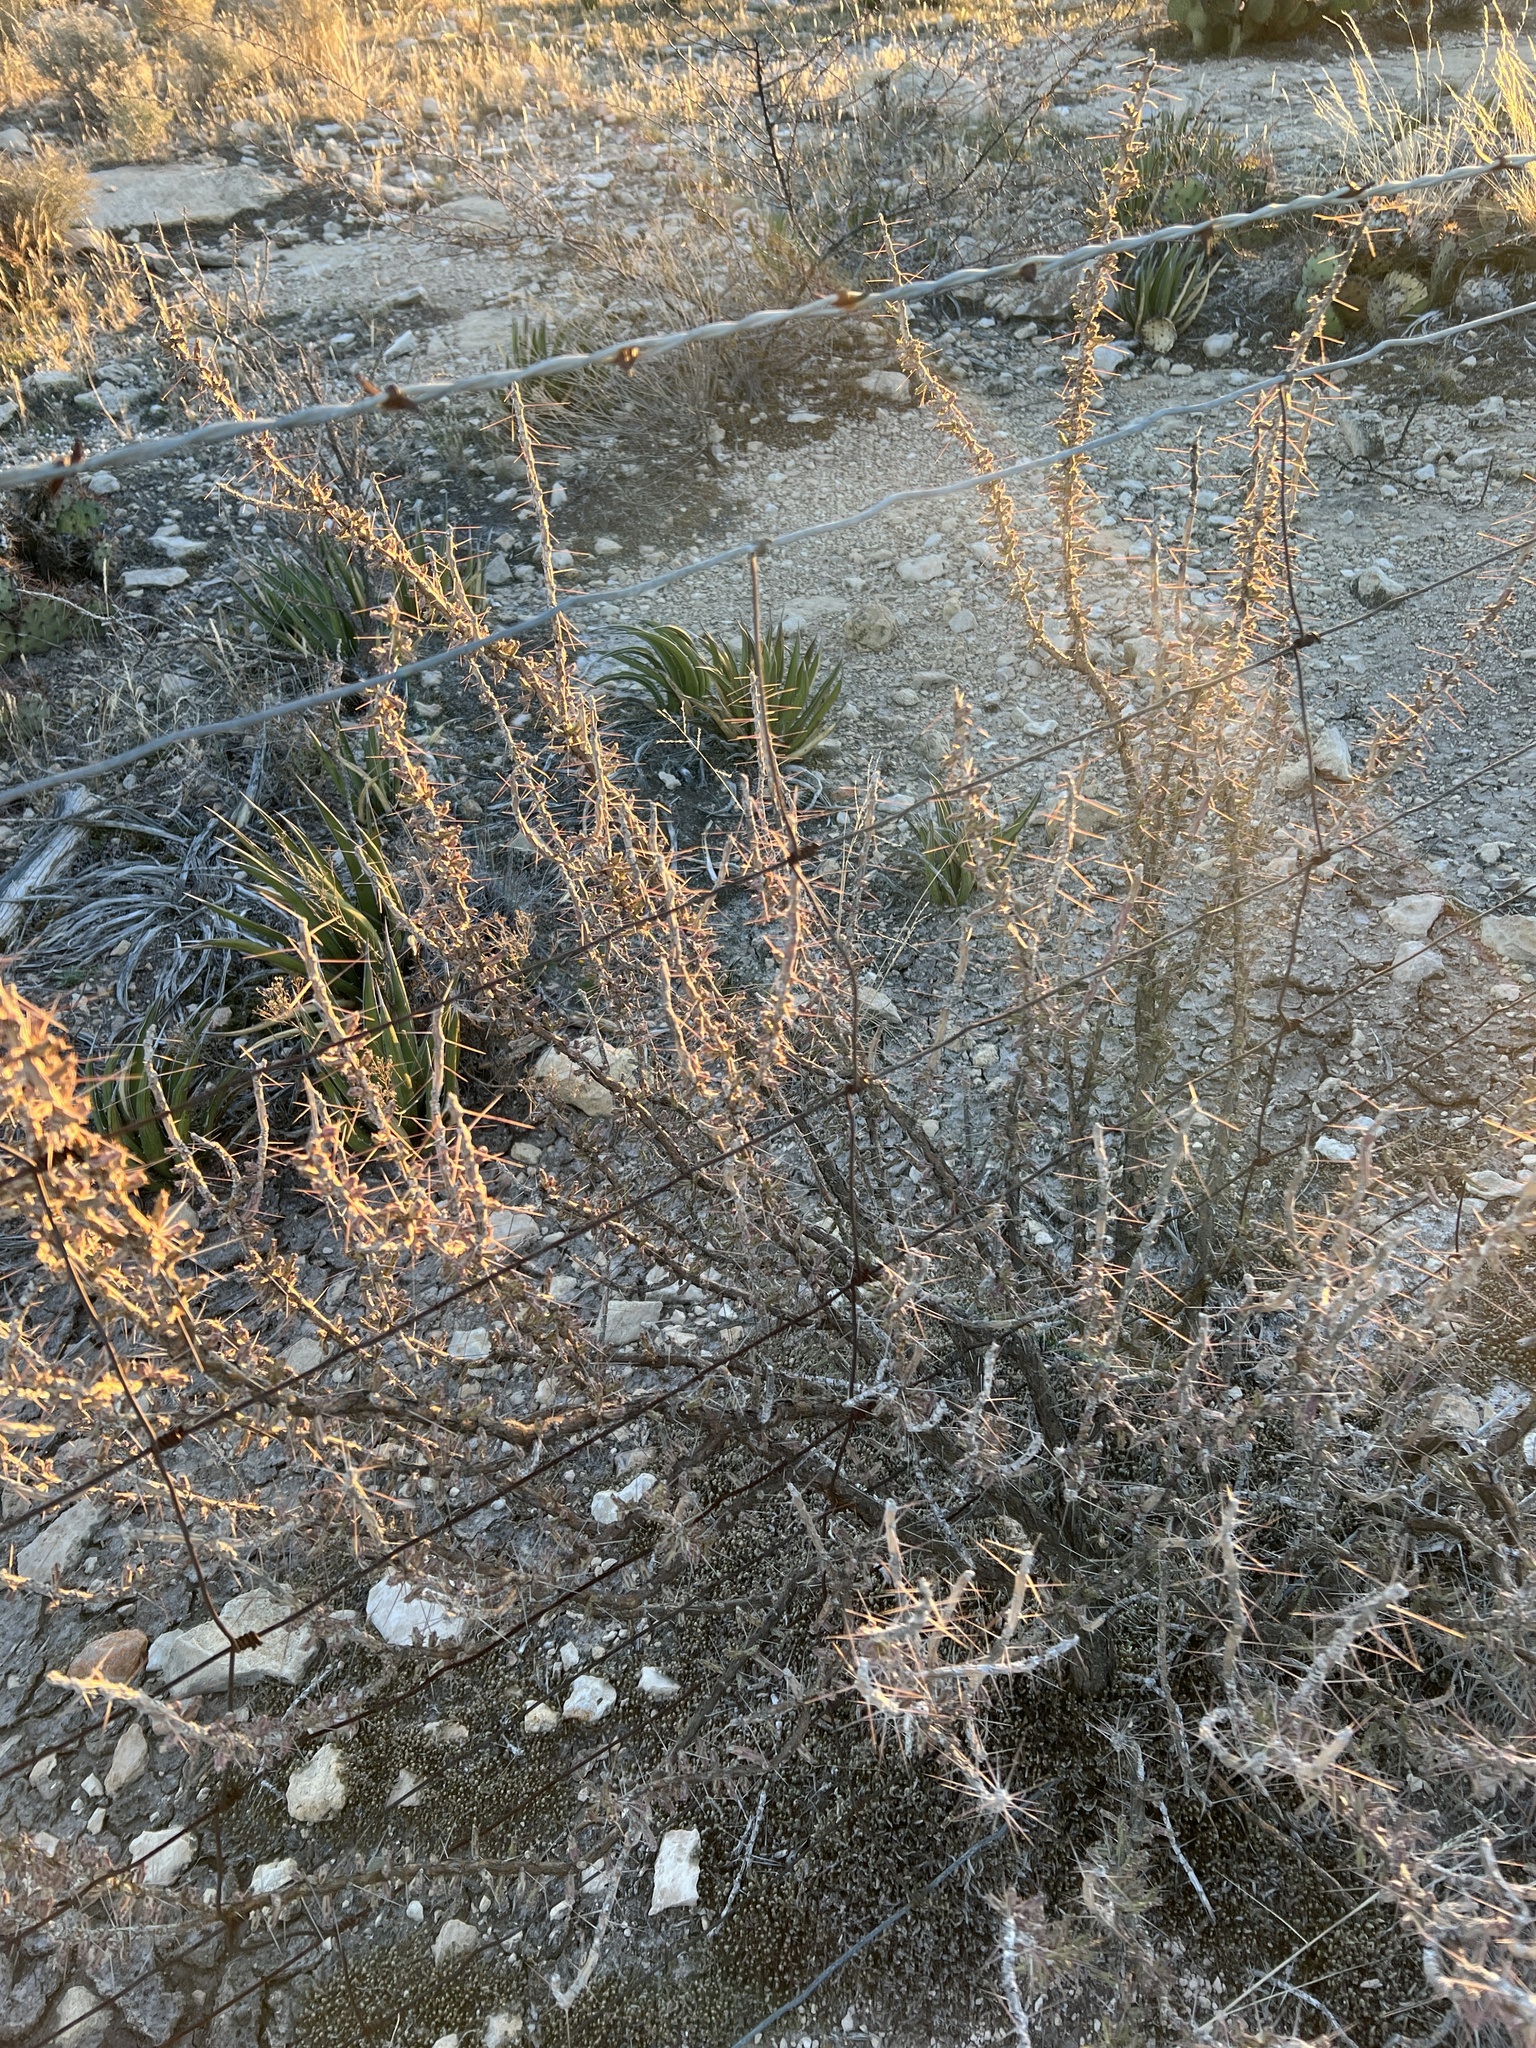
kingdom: Plantae
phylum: Tracheophyta
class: Magnoliopsida
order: Caryophyllales
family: Cactaceae
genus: Cylindropuntia
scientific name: Cylindropuntia leptocaulis
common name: Christmas cactus
